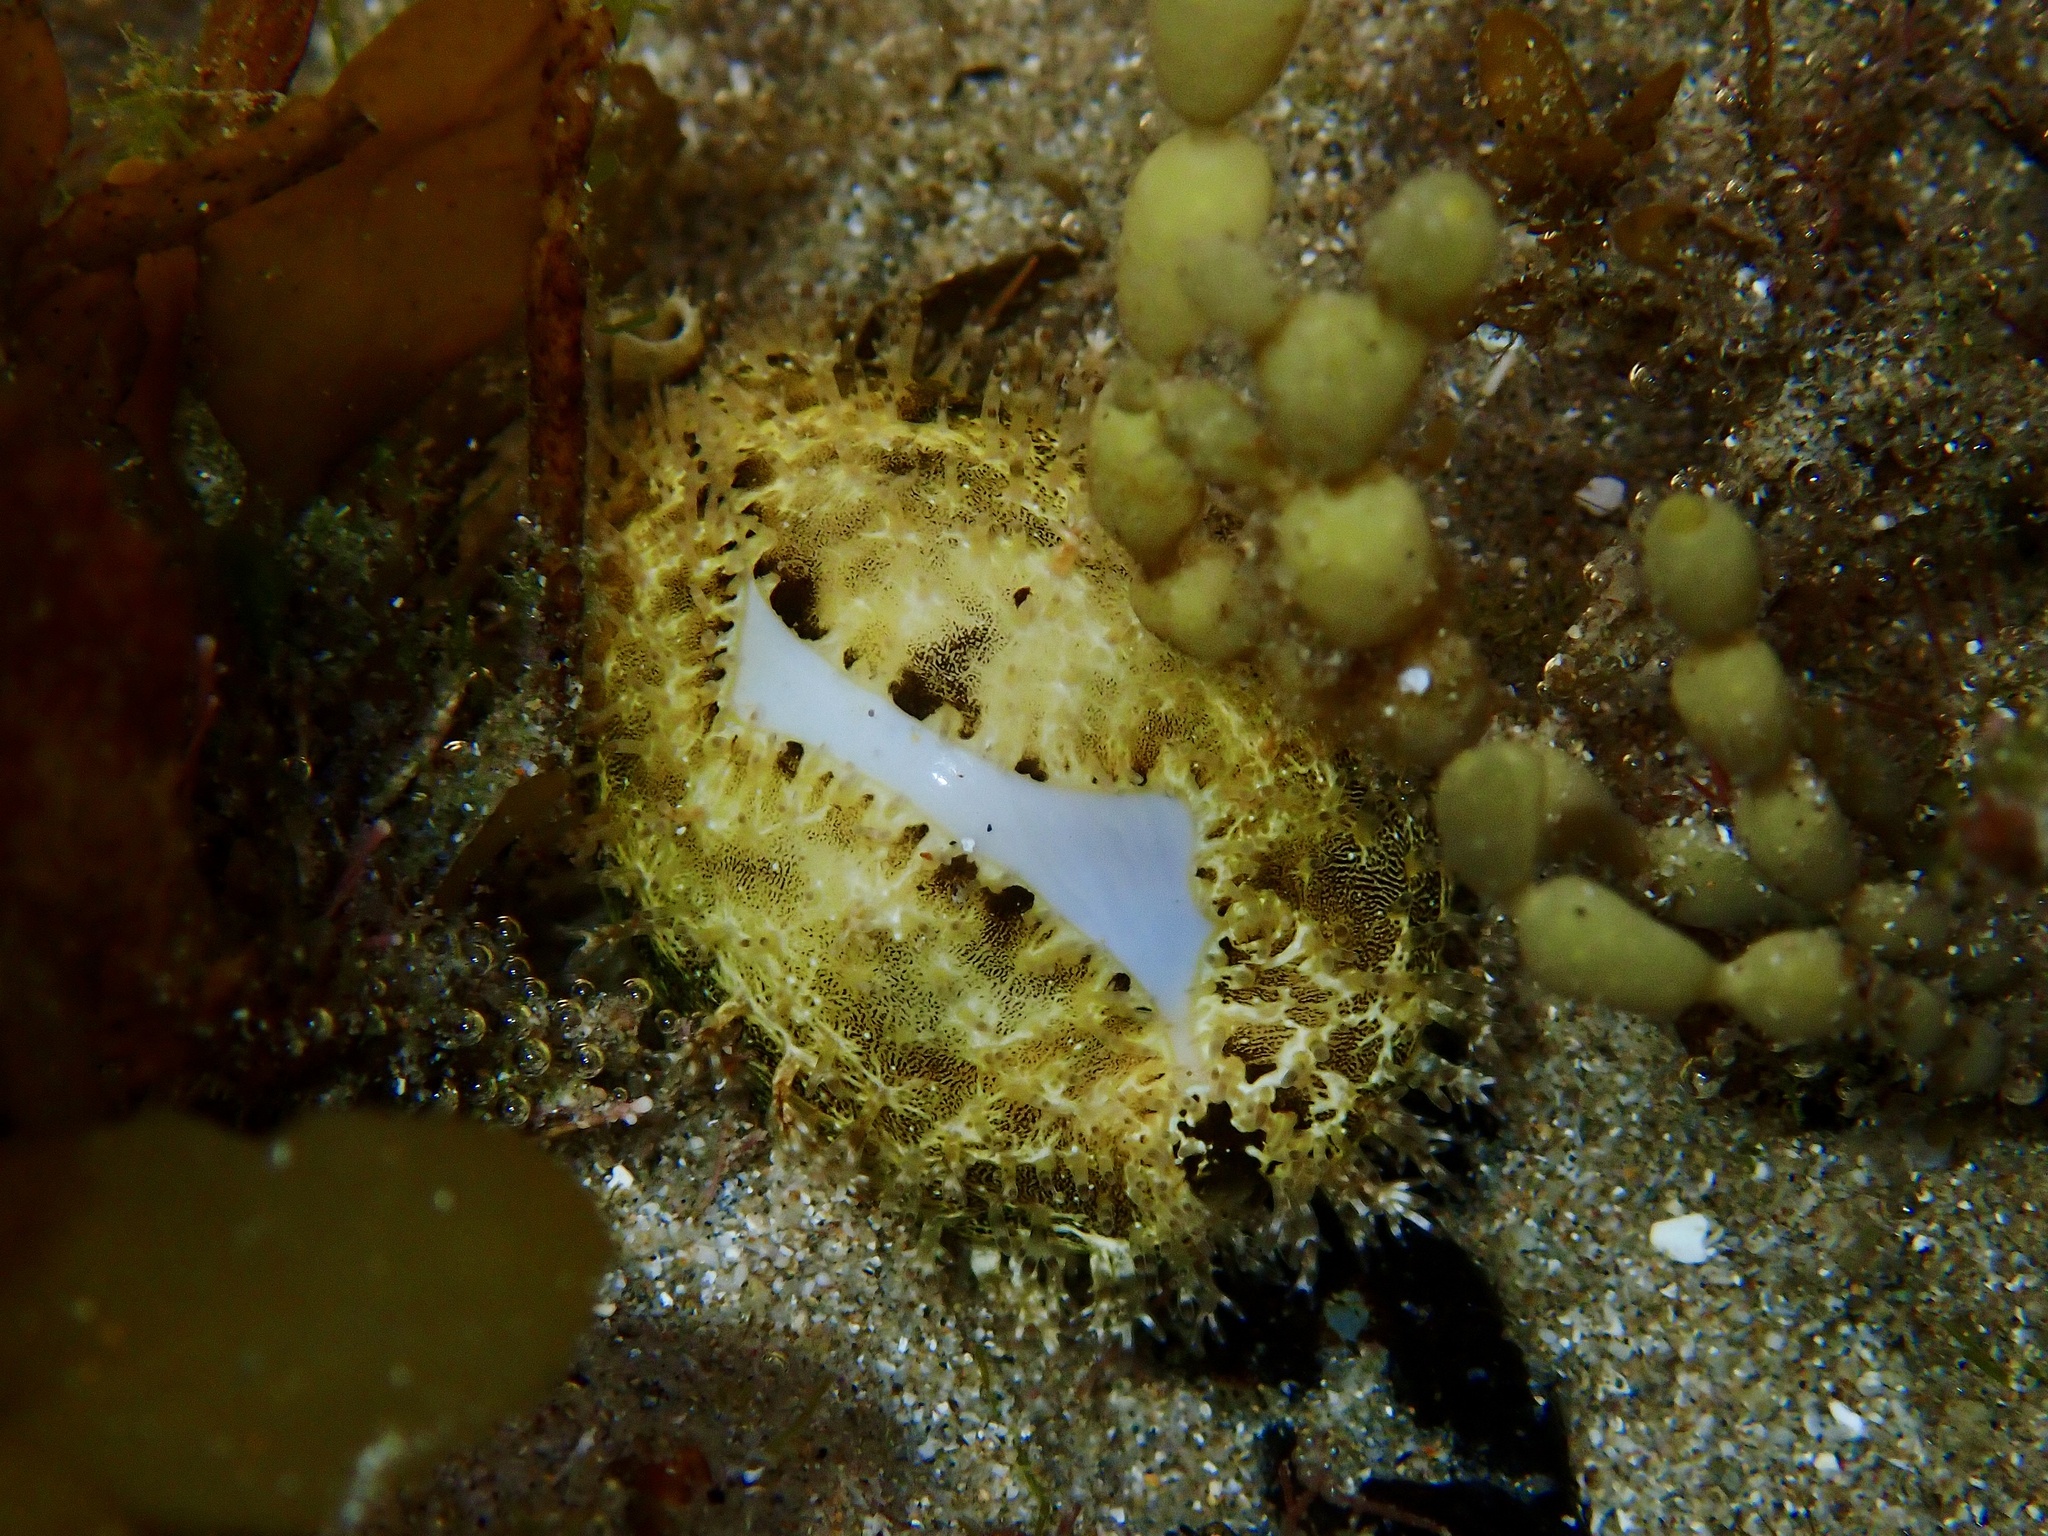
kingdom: Animalia
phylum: Mollusca
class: Gastropoda
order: Littorinimorpha
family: Cypraeidae
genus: Monetaria
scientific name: Monetaria annulus
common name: Ring cowrie
